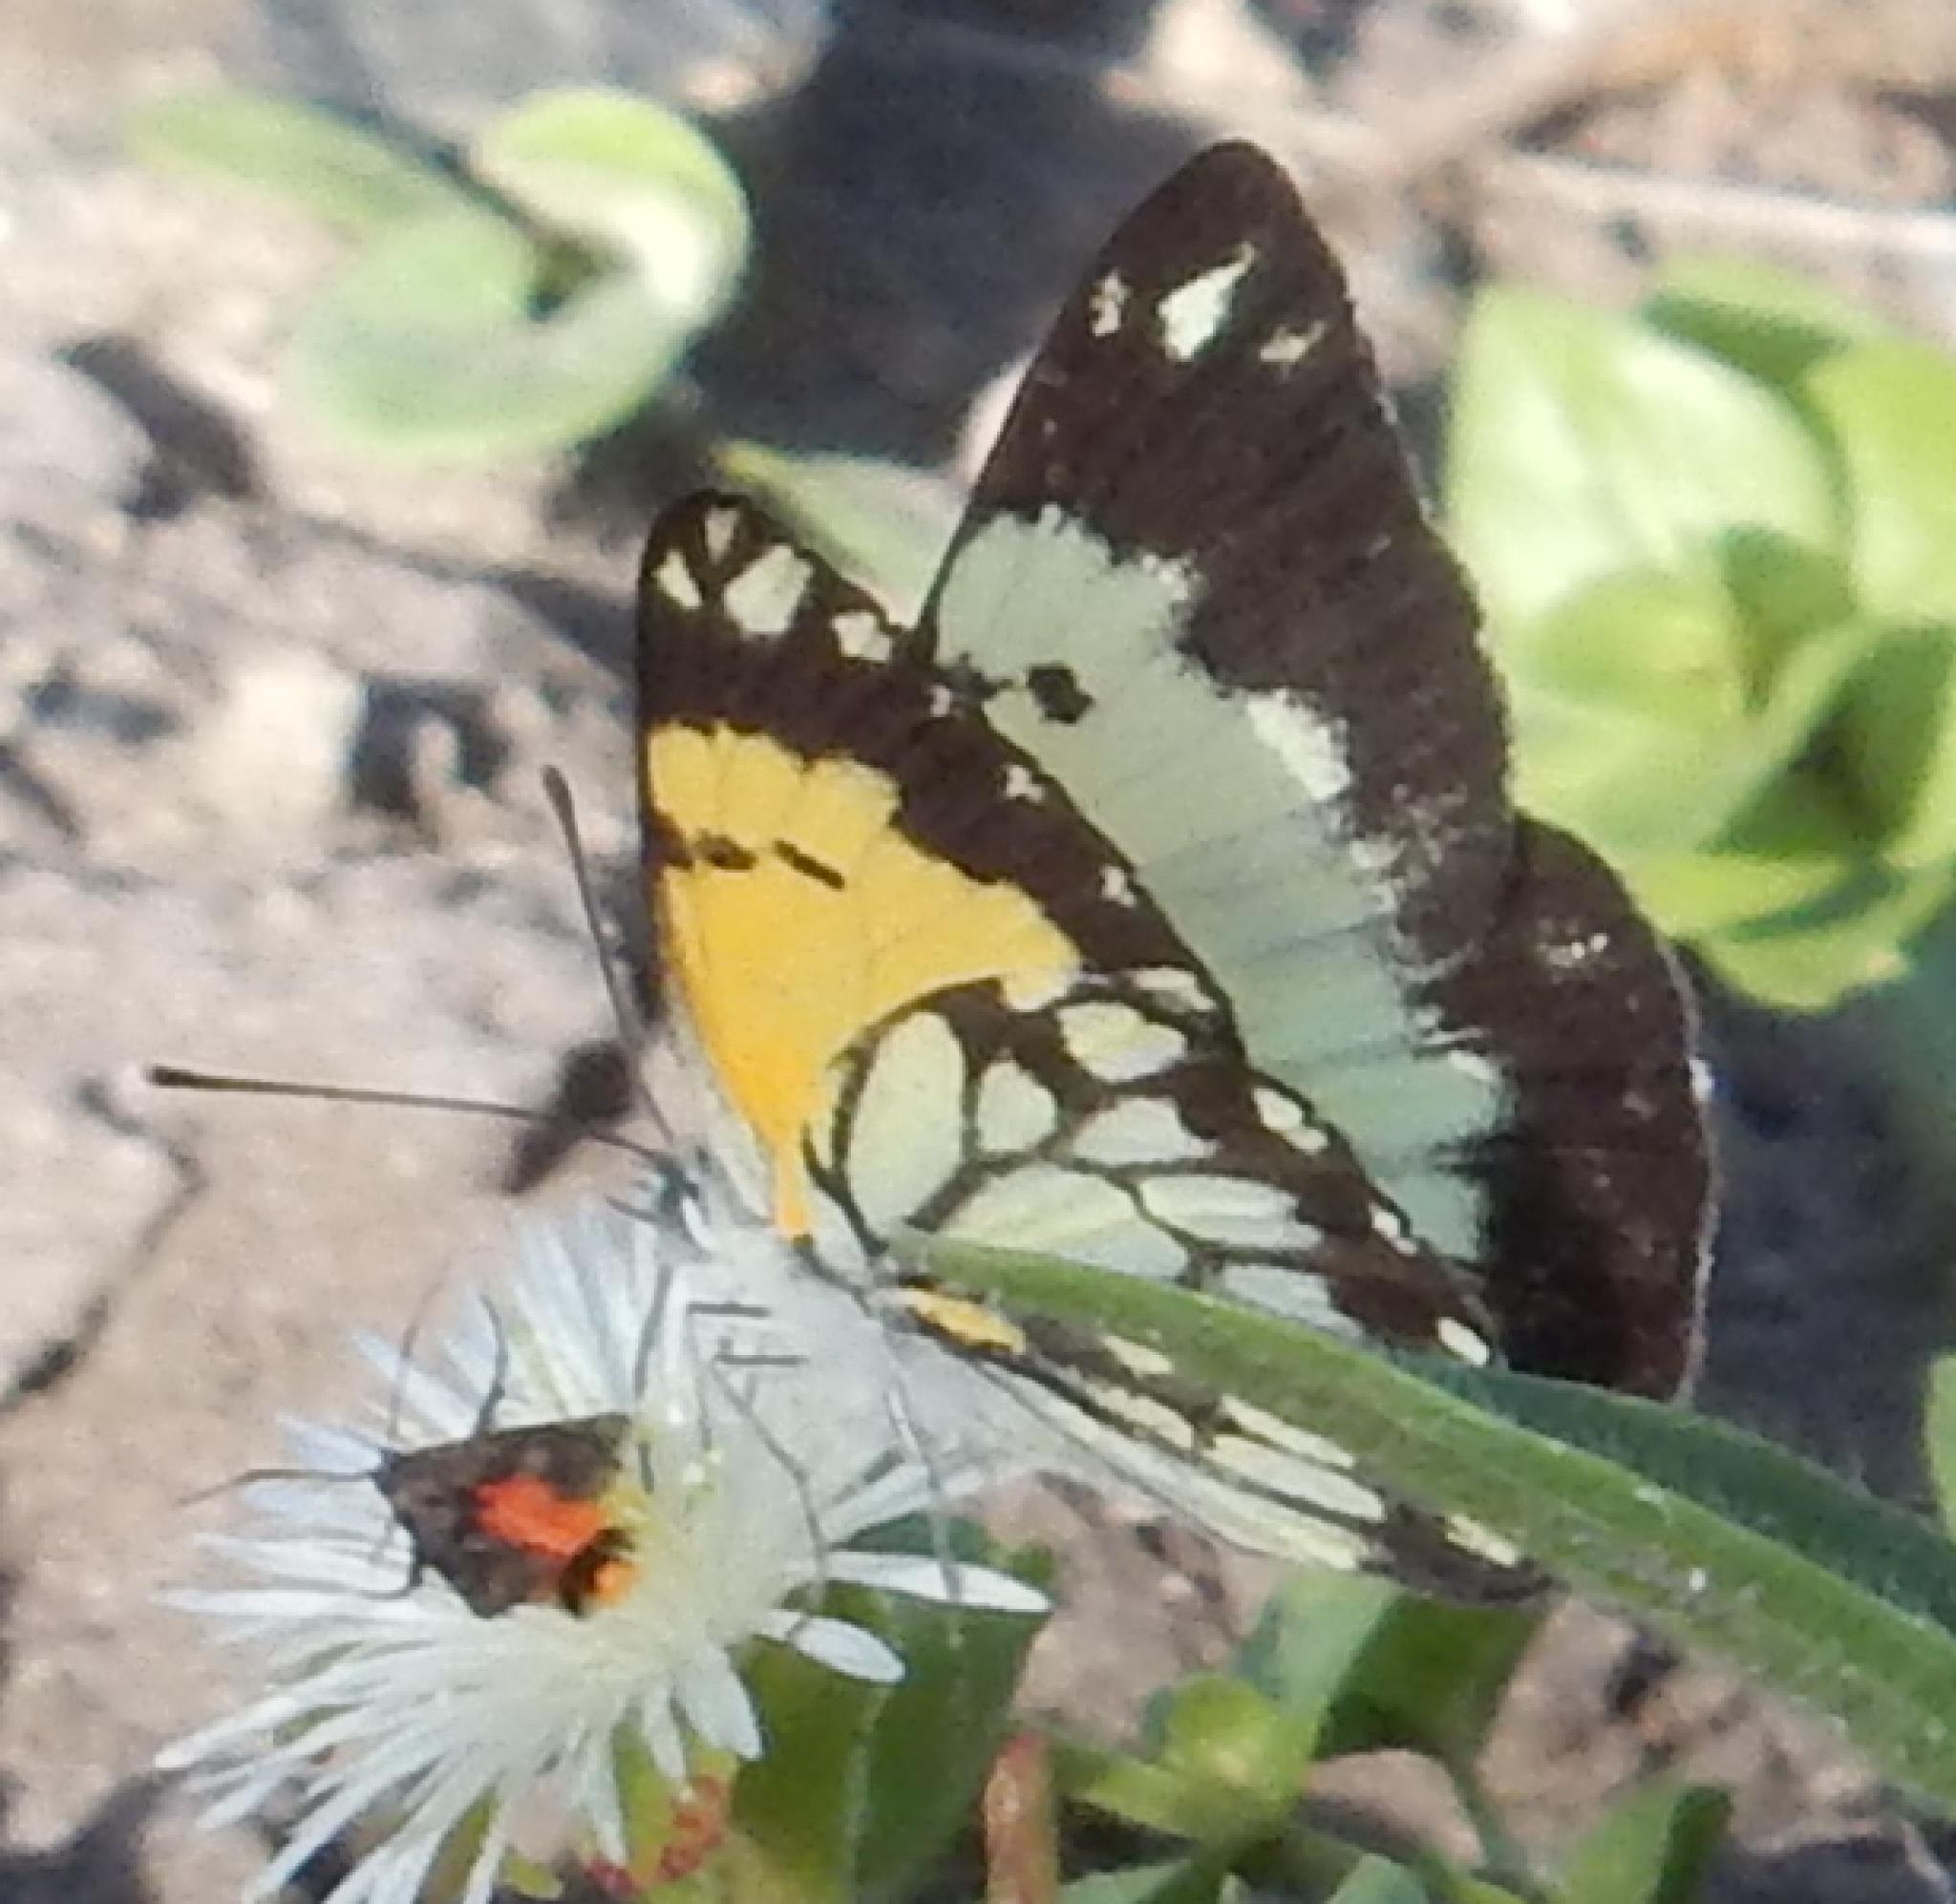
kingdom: Animalia
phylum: Arthropoda
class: Insecta
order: Lepidoptera
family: Pieridae
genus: Belenois
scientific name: Belenois creona
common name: African caper white
